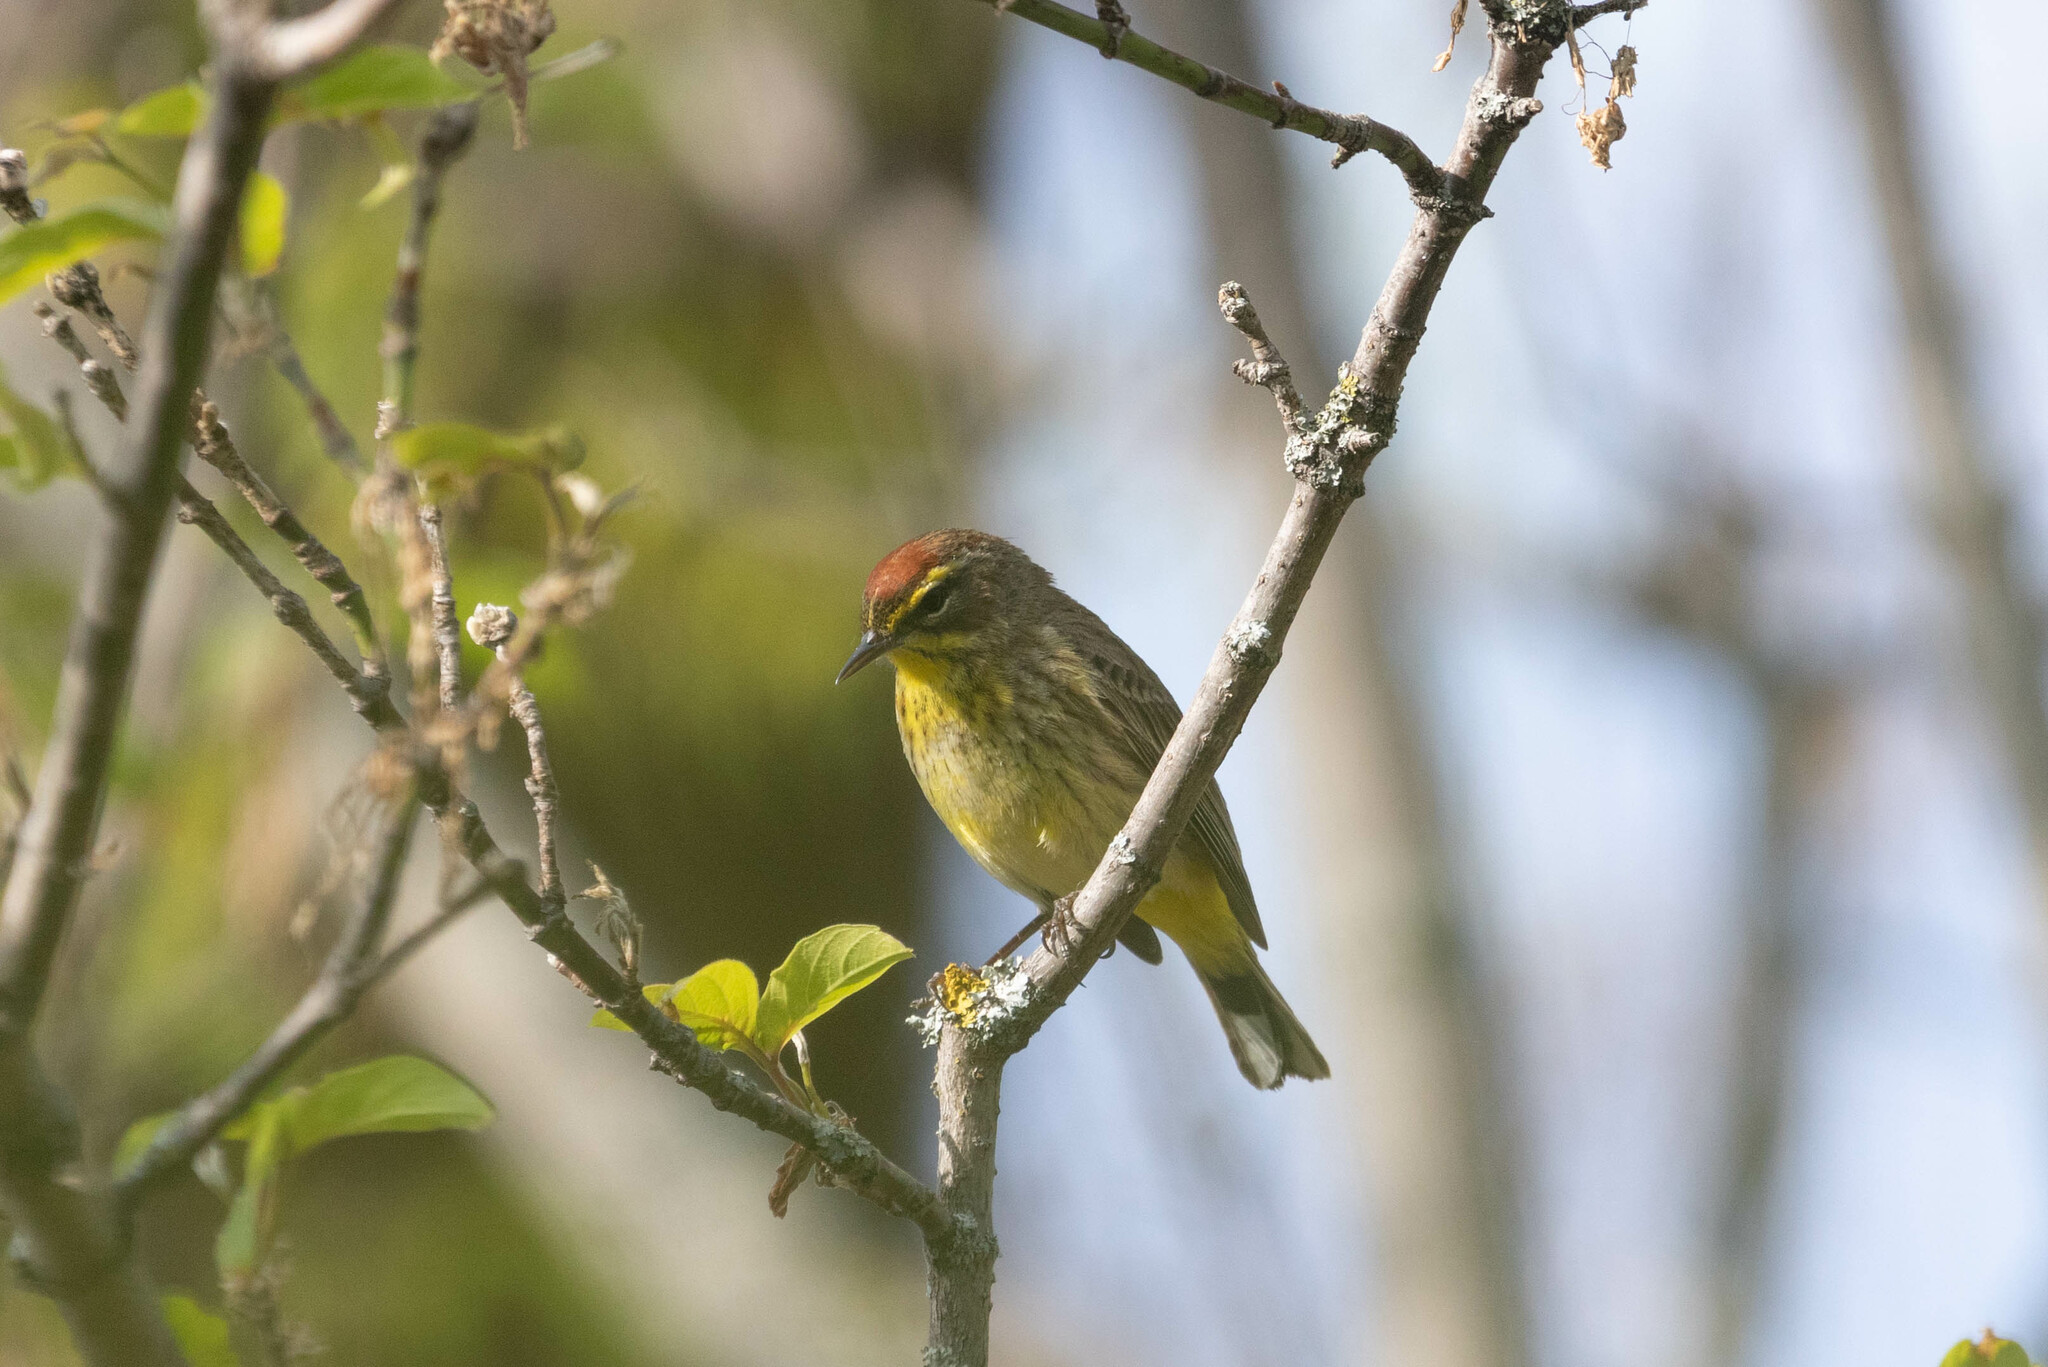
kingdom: Animalia
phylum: Chordata
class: Aves
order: Passeriformes
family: Parulidae
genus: Setophaga
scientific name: Setophaga palmarum
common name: Palm warbler
